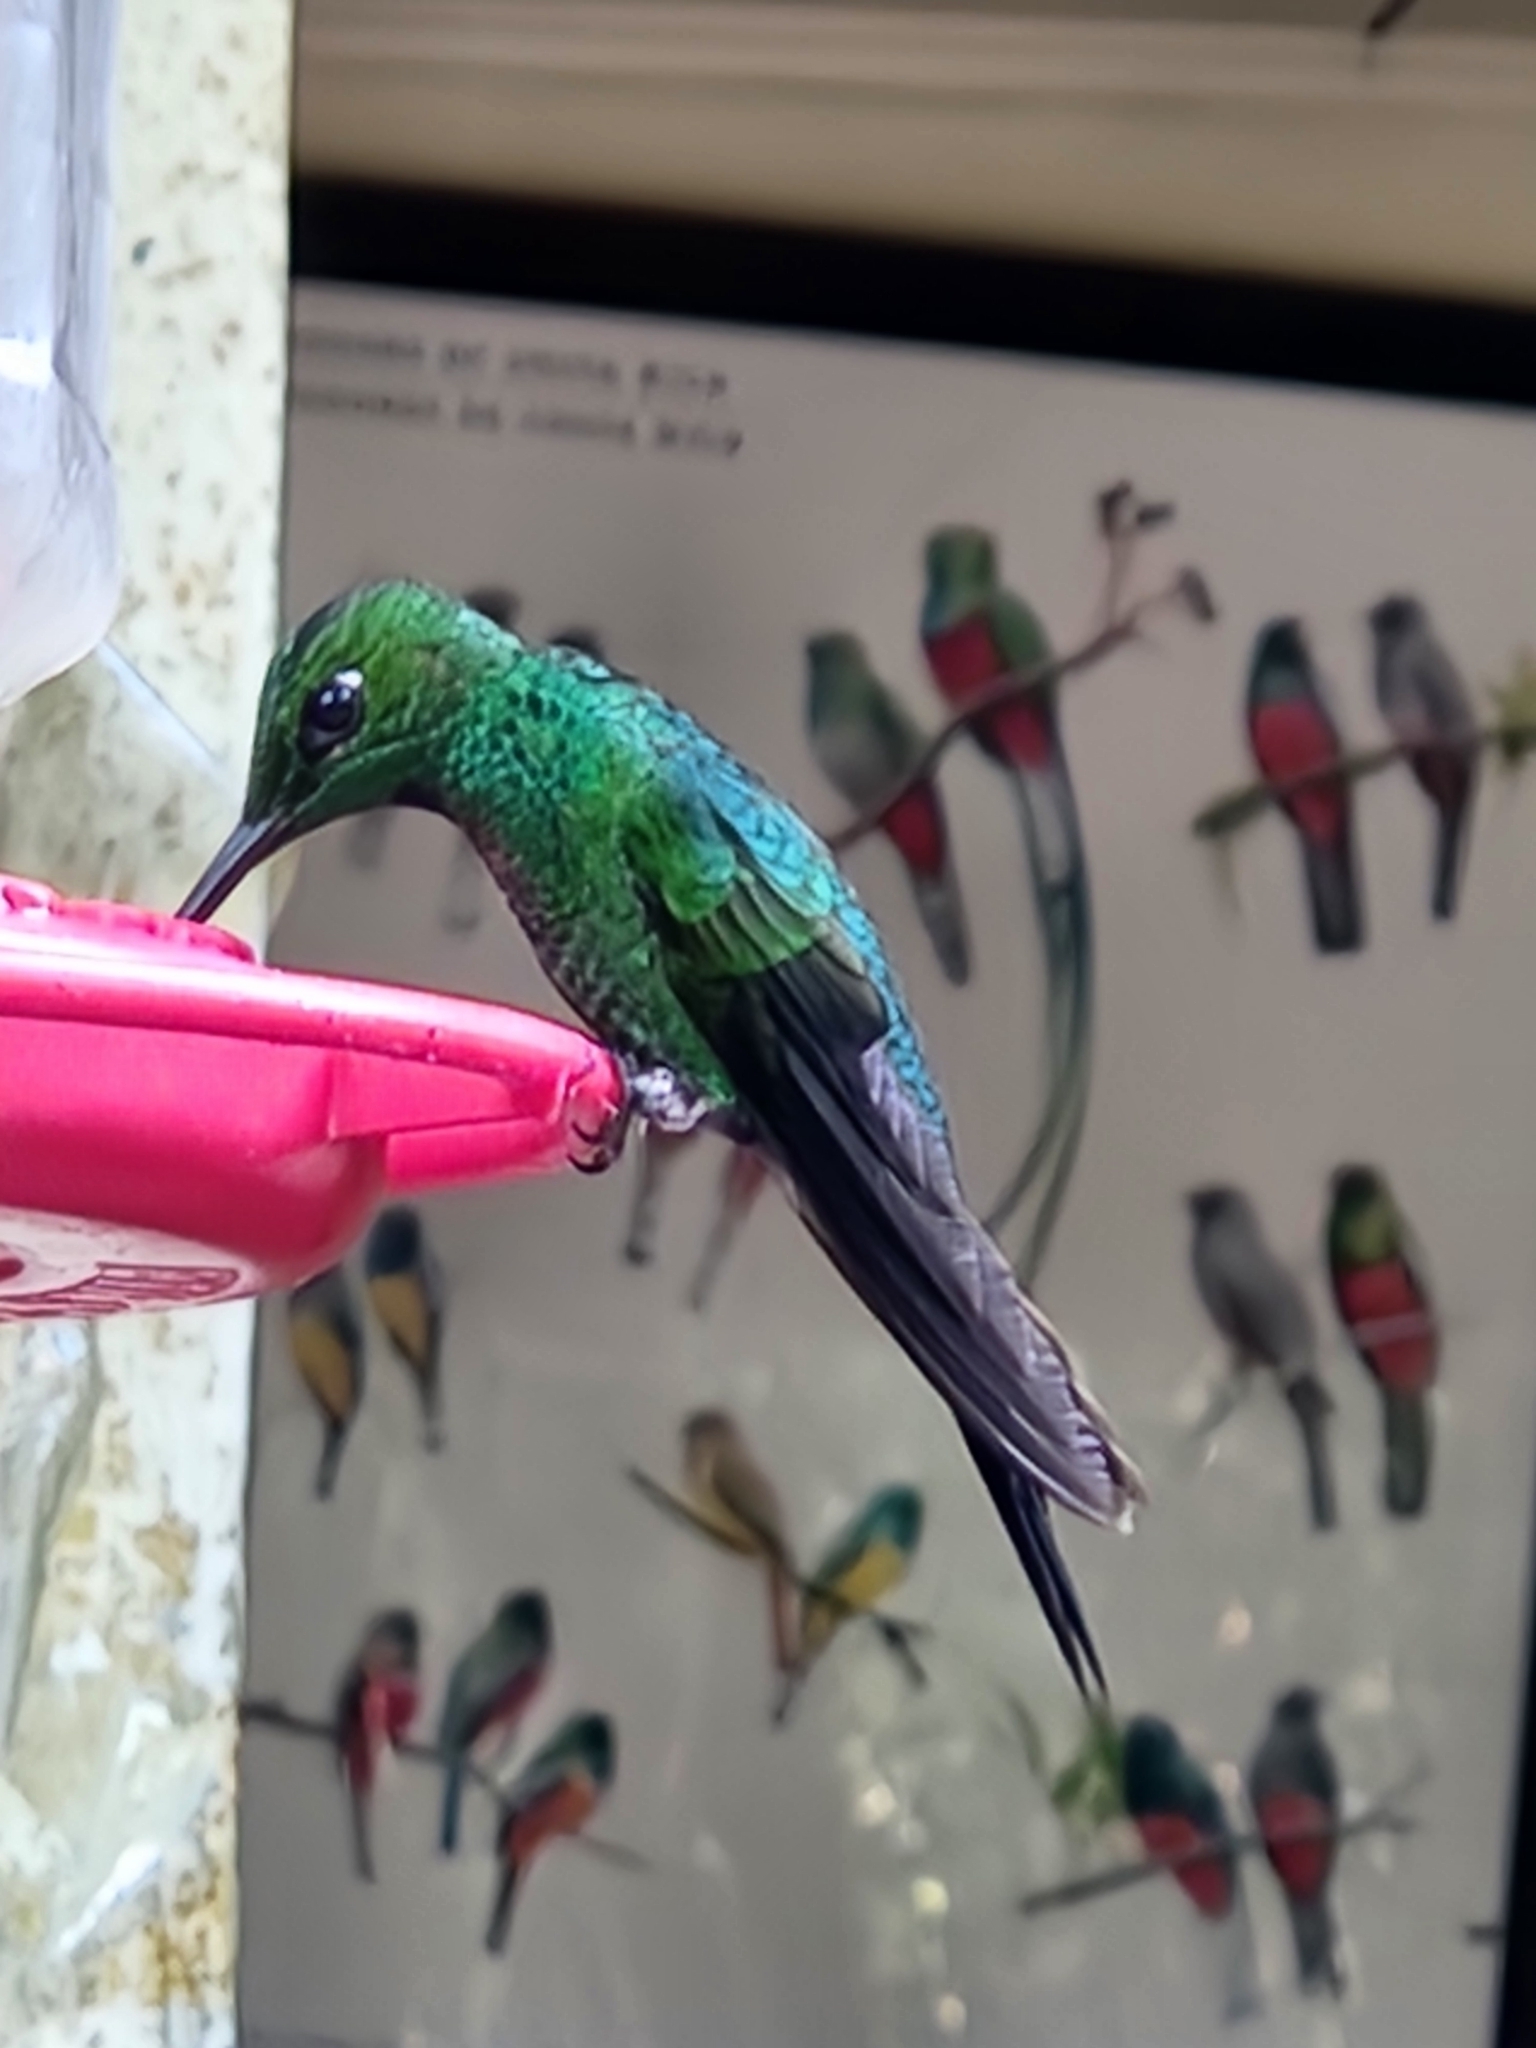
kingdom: Animalia
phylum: Chordata
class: Aves
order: Apodiformes
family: Trochilidae
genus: Heliodoxa
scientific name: Heliodoxa jacula
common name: Green-crowned brilliant
